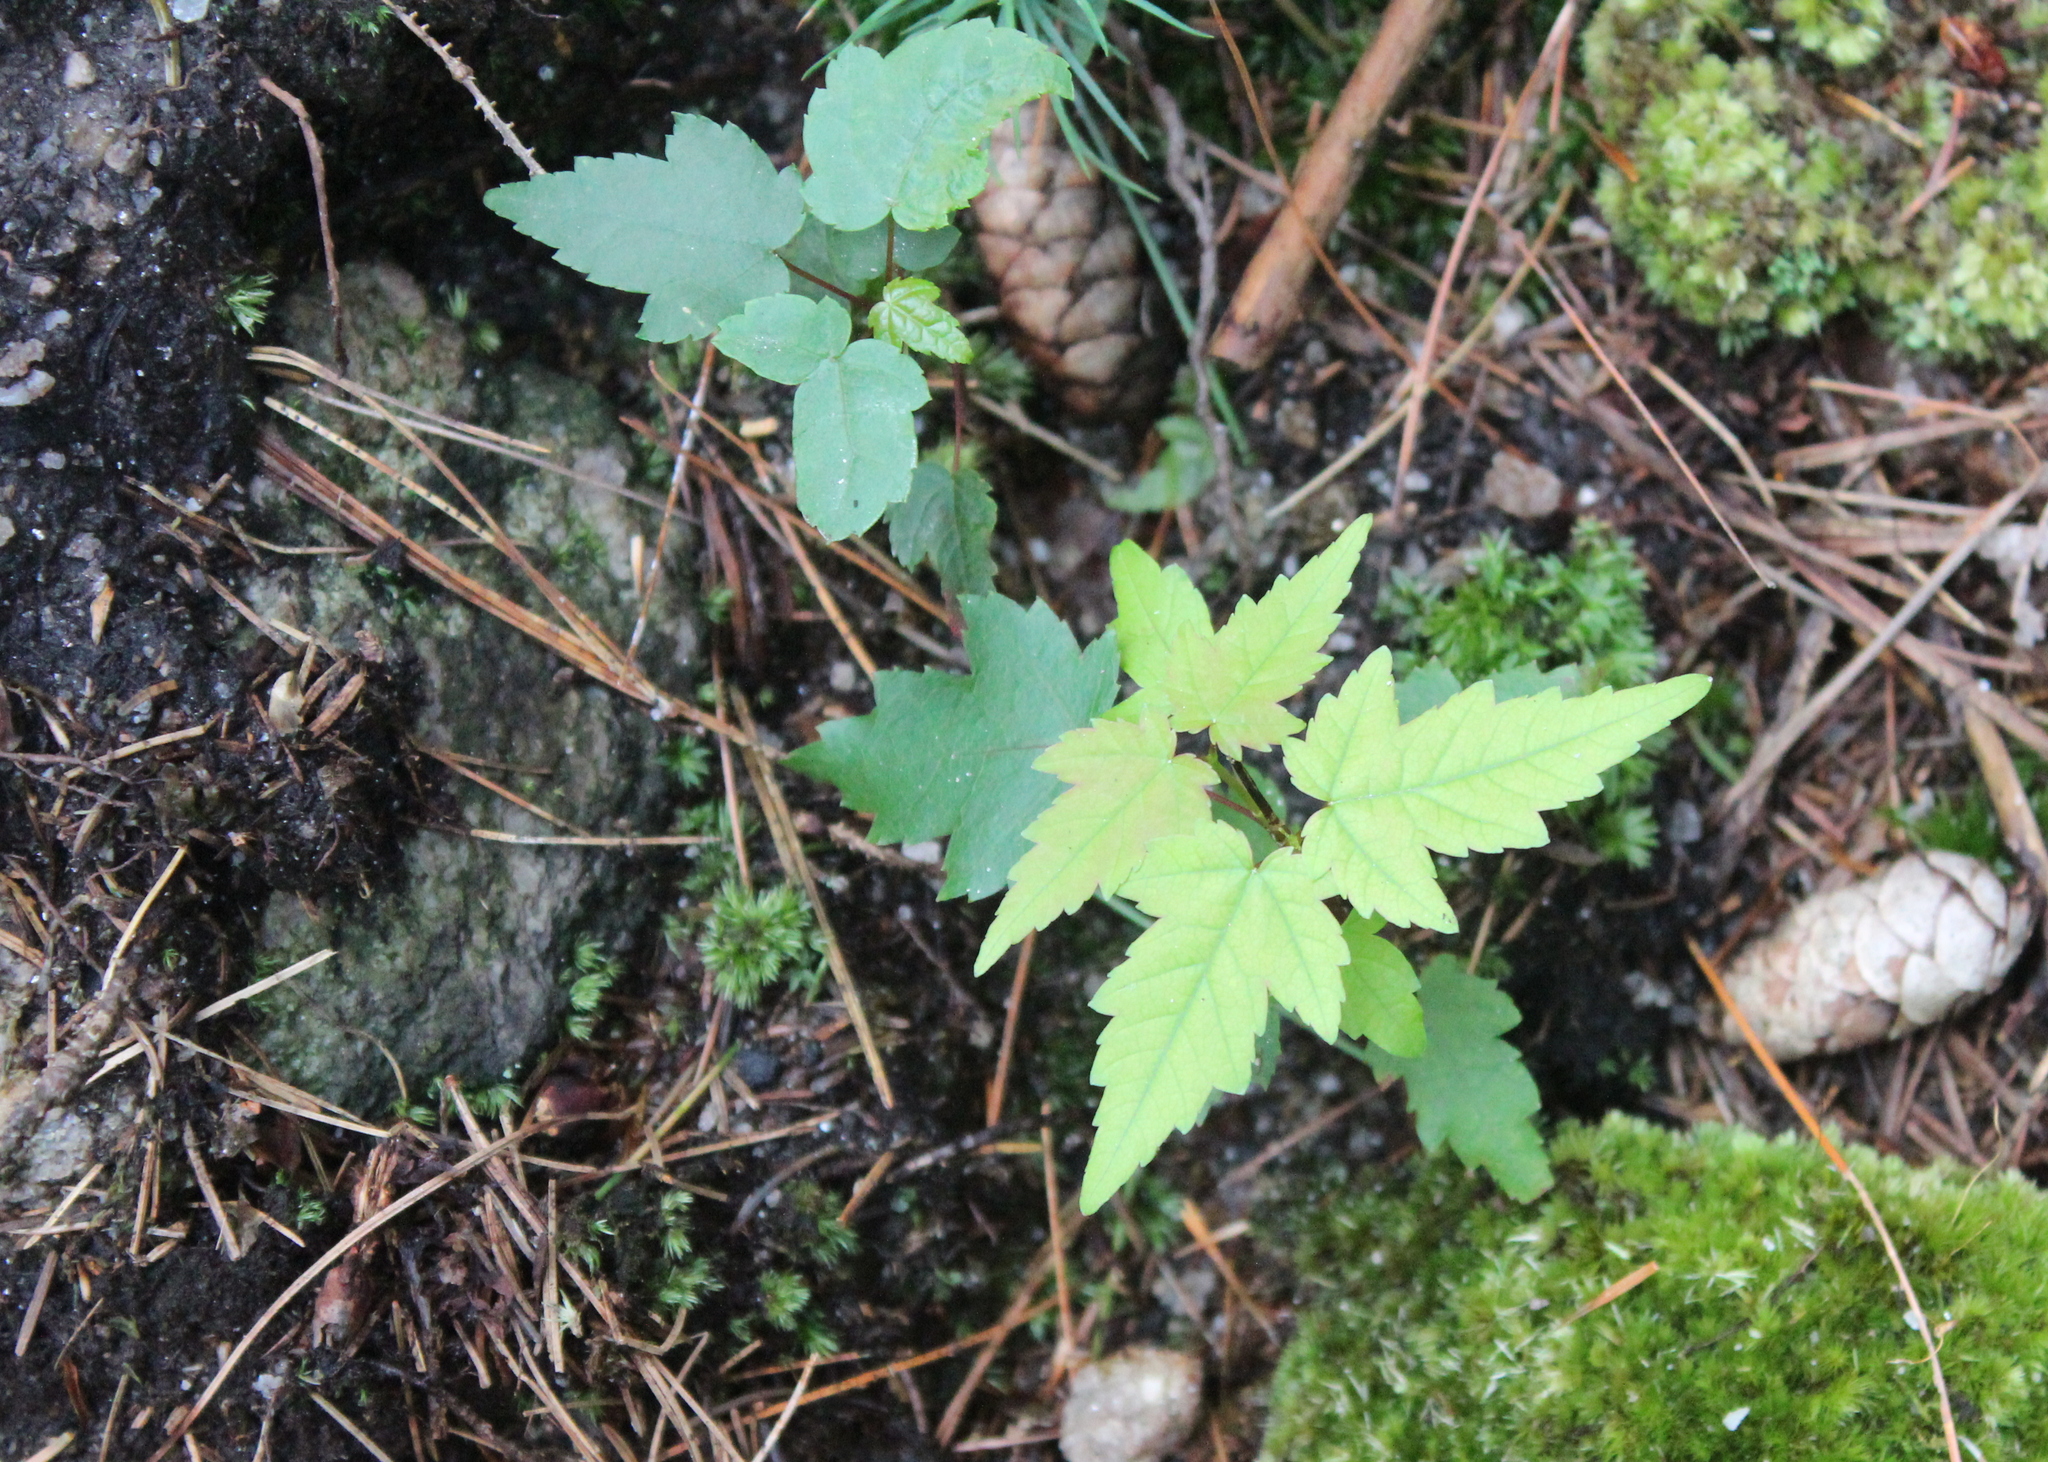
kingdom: Plantae
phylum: Tracheophyta
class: Magnoliopsida
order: Sapindales
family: Sapindaceae
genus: Acer
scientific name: Acer rubrum
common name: Red maple
